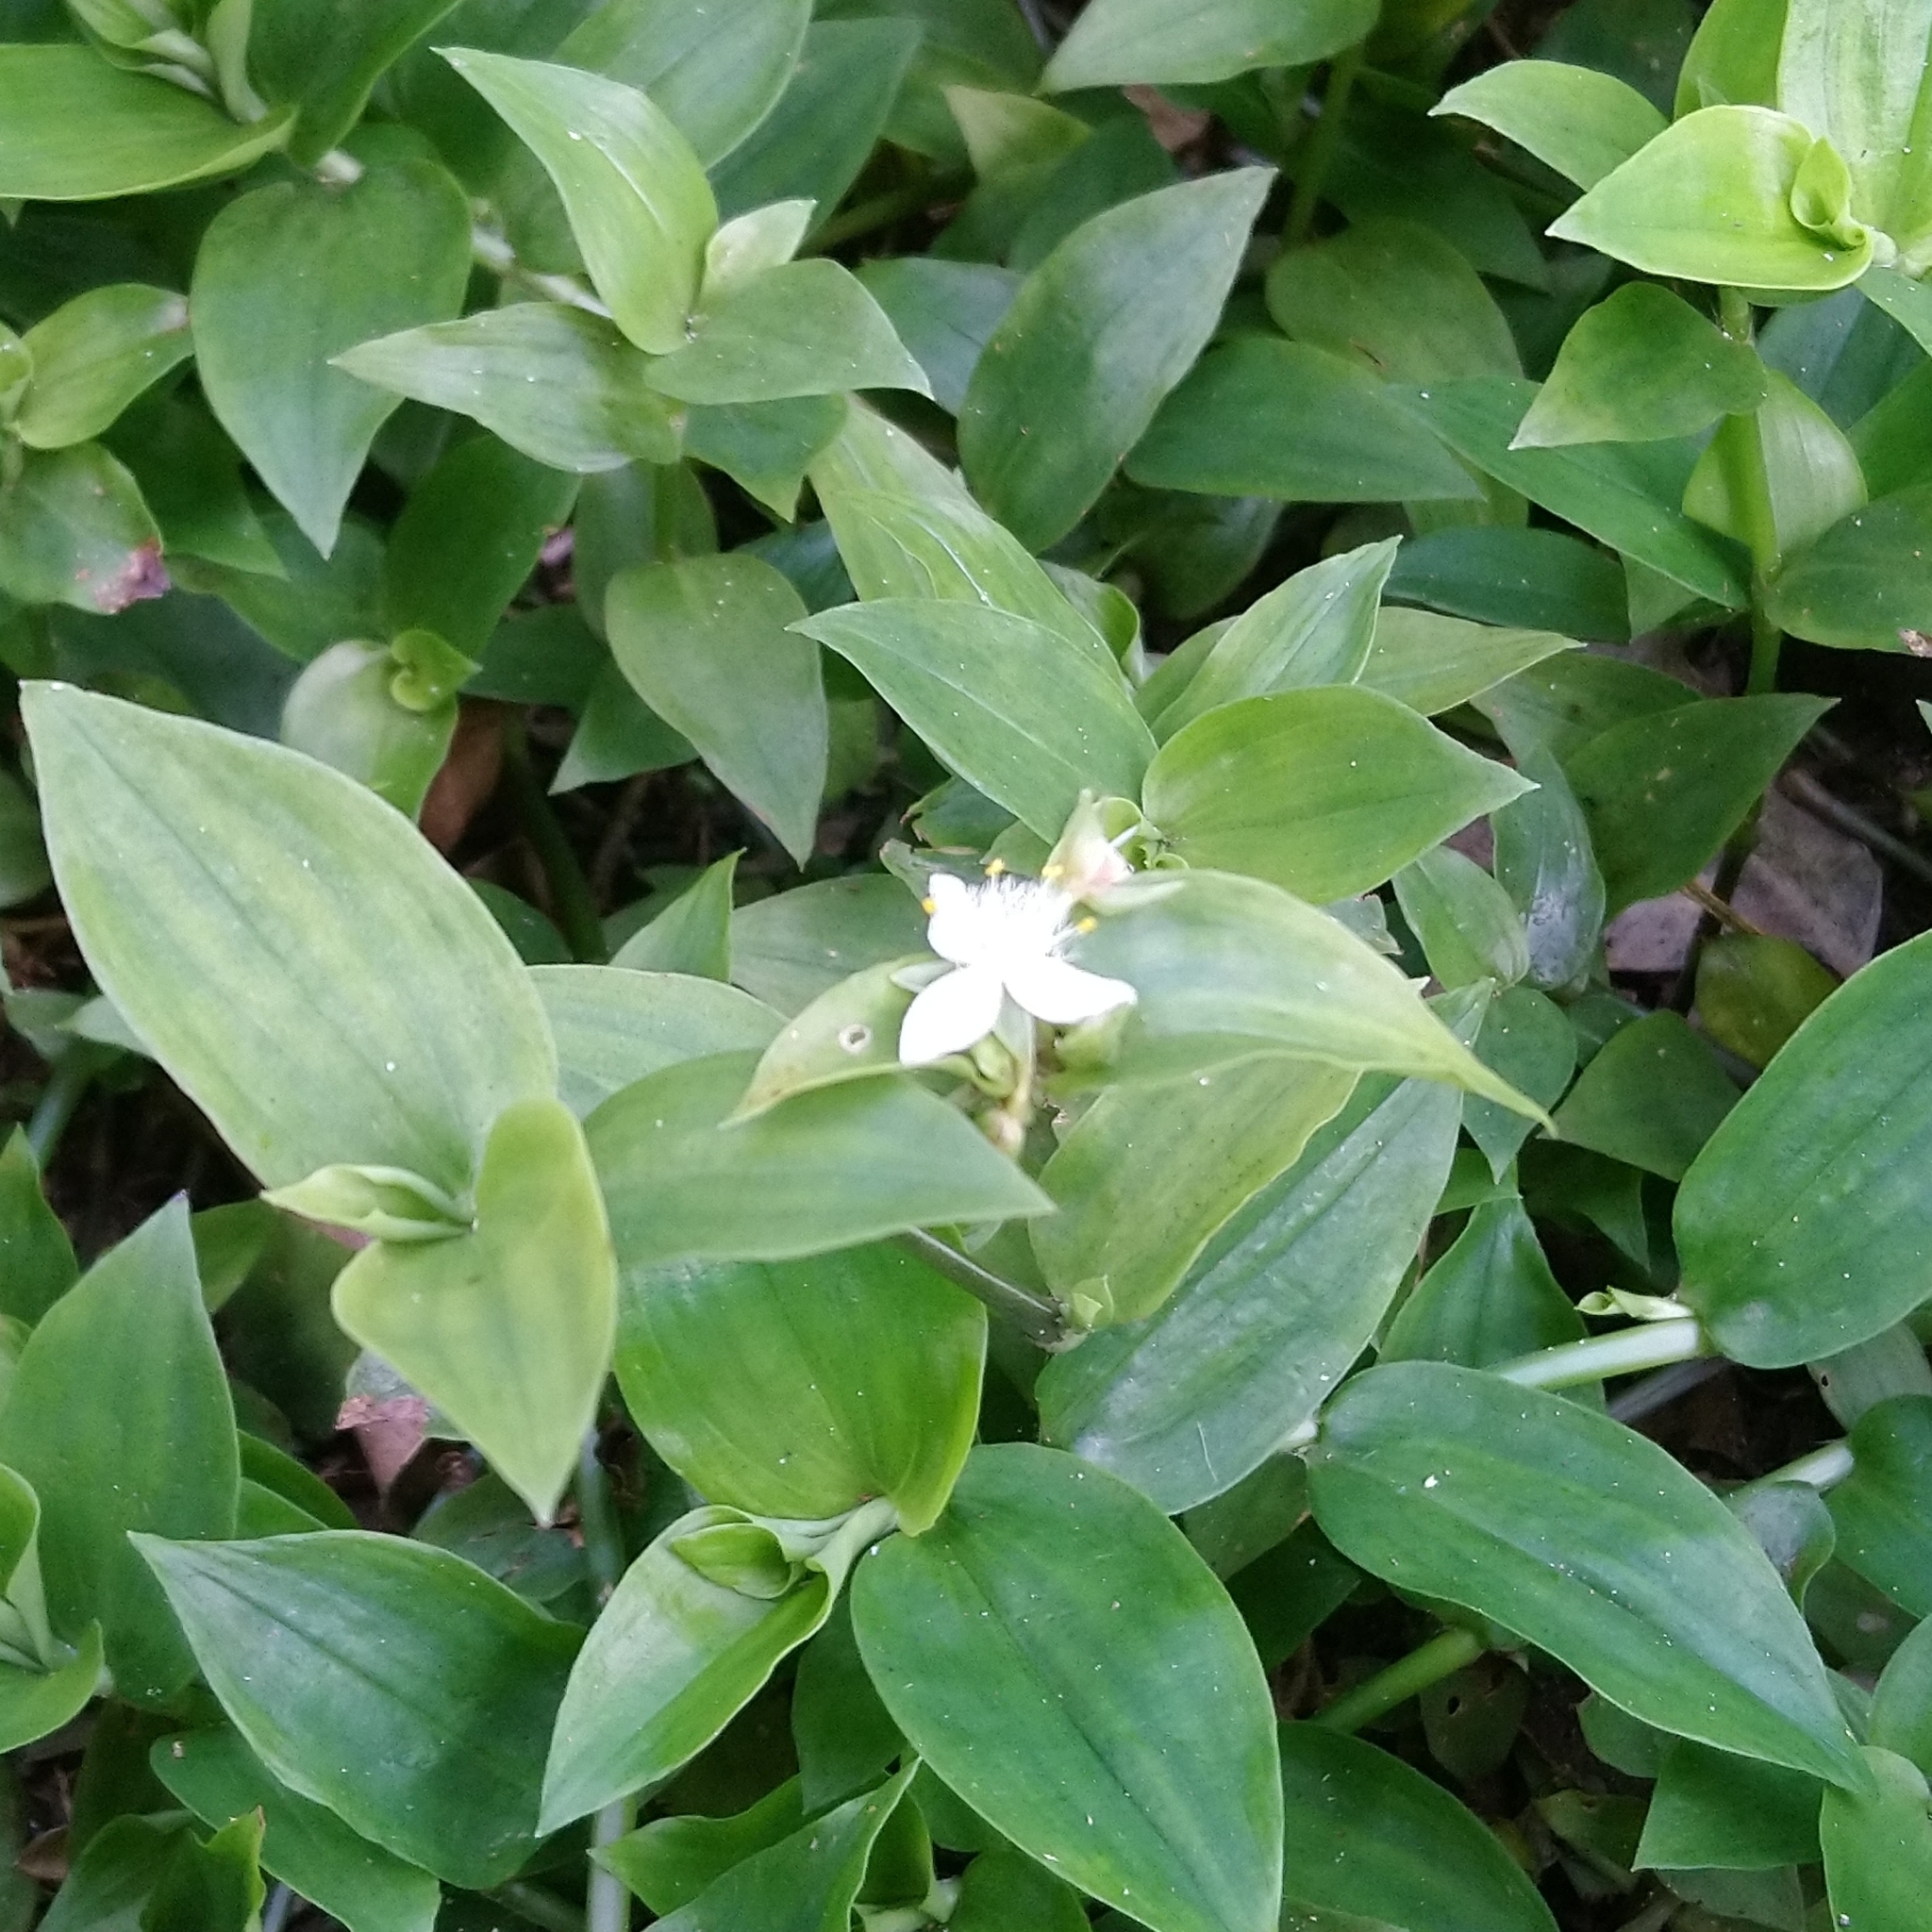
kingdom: Plantae
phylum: Tracheophyta
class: Liliopsida
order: Commelinales
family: Commelinaceae
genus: Tradescantia
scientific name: Tradescantia fluminensis
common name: Wandering-jew
